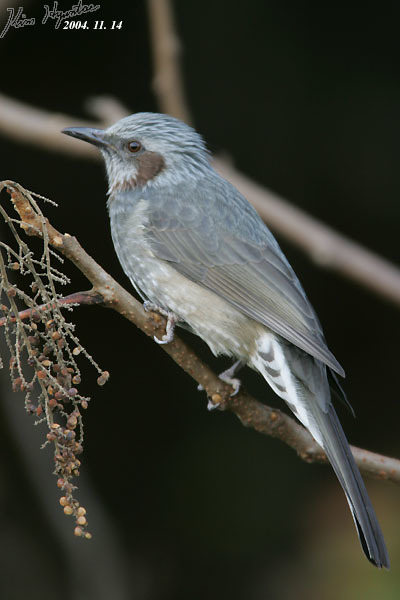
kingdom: Animalia
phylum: Chordata
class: Aves
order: Passeriformes
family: Pycnonotidae
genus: Hypsipetes
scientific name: Hypsipetes amaurotis
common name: Brown-eared bulbul
